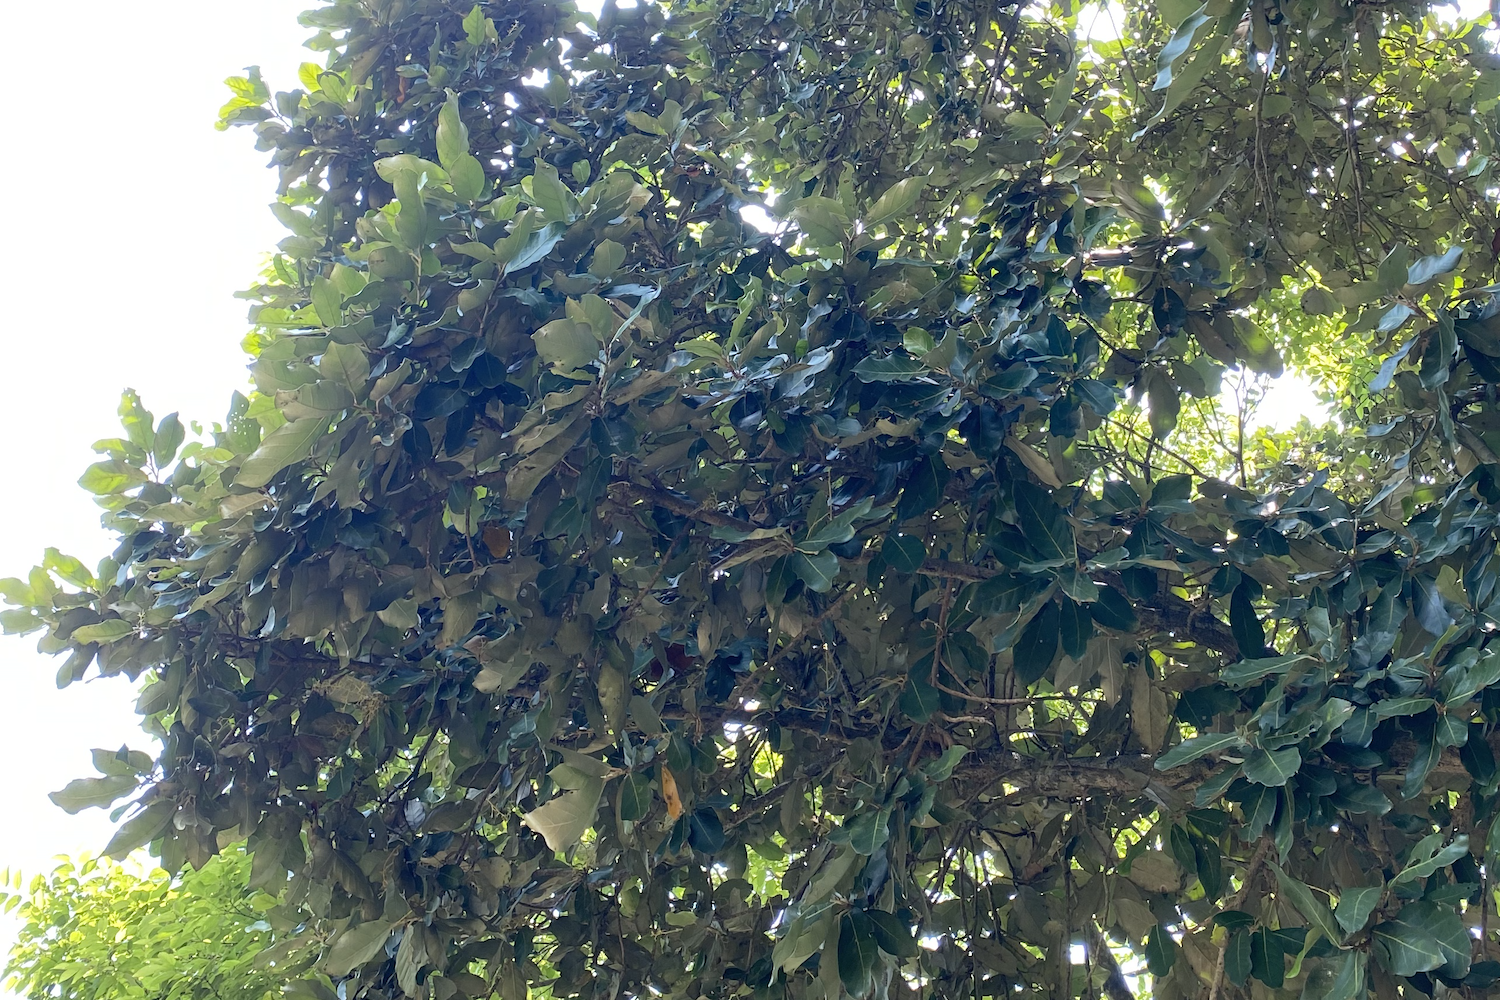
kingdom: Plantae
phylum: Tracheophyta
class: Magnoliopsida
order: Malvales
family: Malvaceae
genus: Heritiera
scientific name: Heritiera littoralis
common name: Looking-glass mangrove
